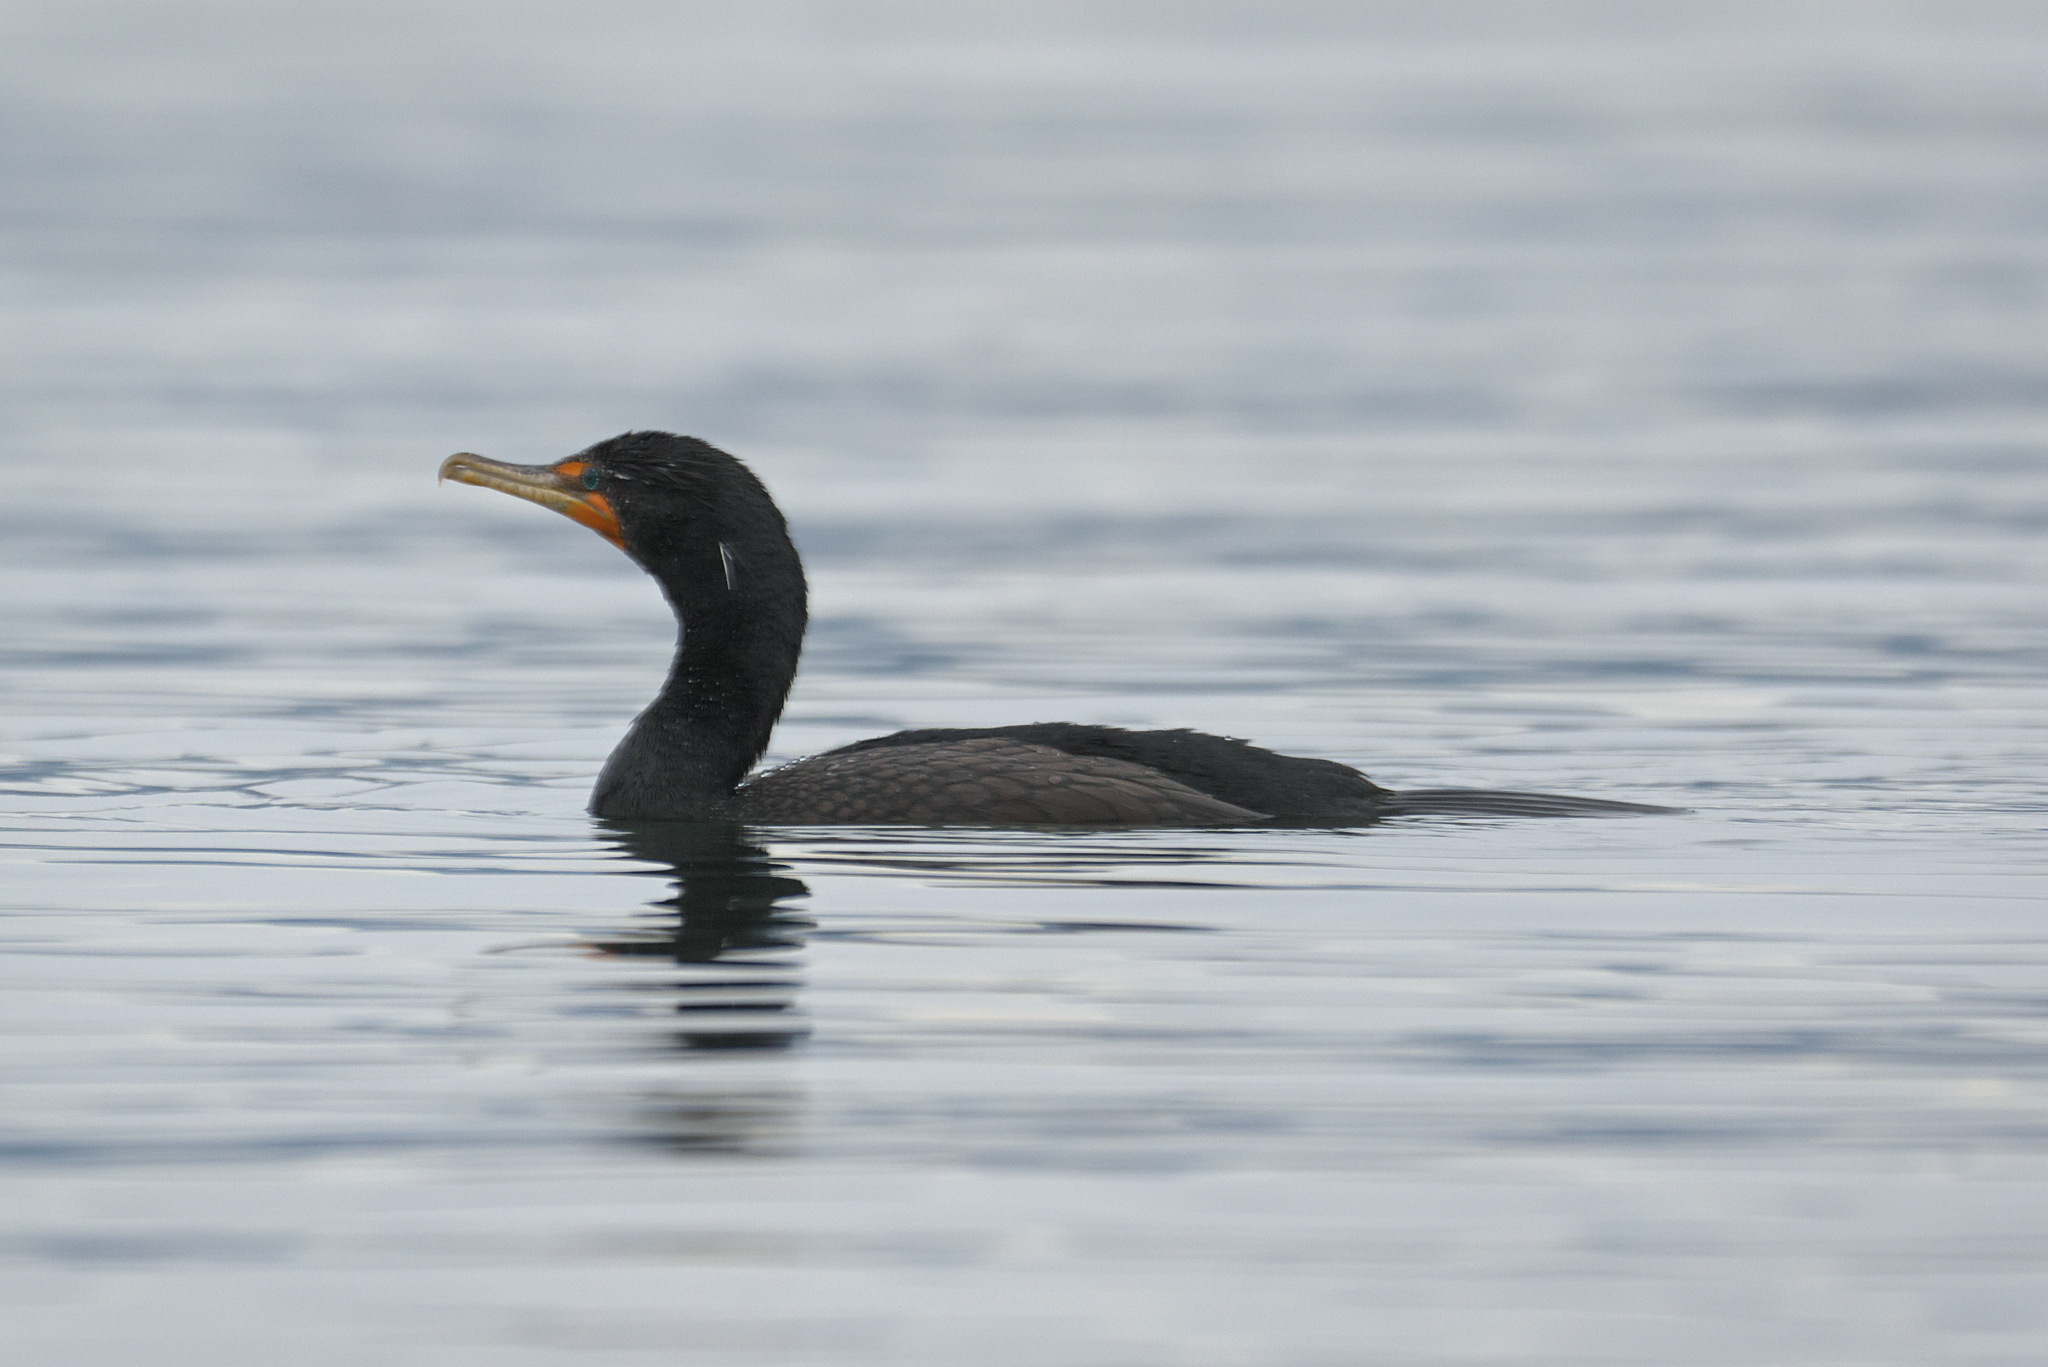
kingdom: Animalia
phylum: Chordata
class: Aves
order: Suliformes
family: Phalacrocoracidae
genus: Phalacrocorax
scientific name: Phalacrocorax auritus
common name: Double-crested cormorant
